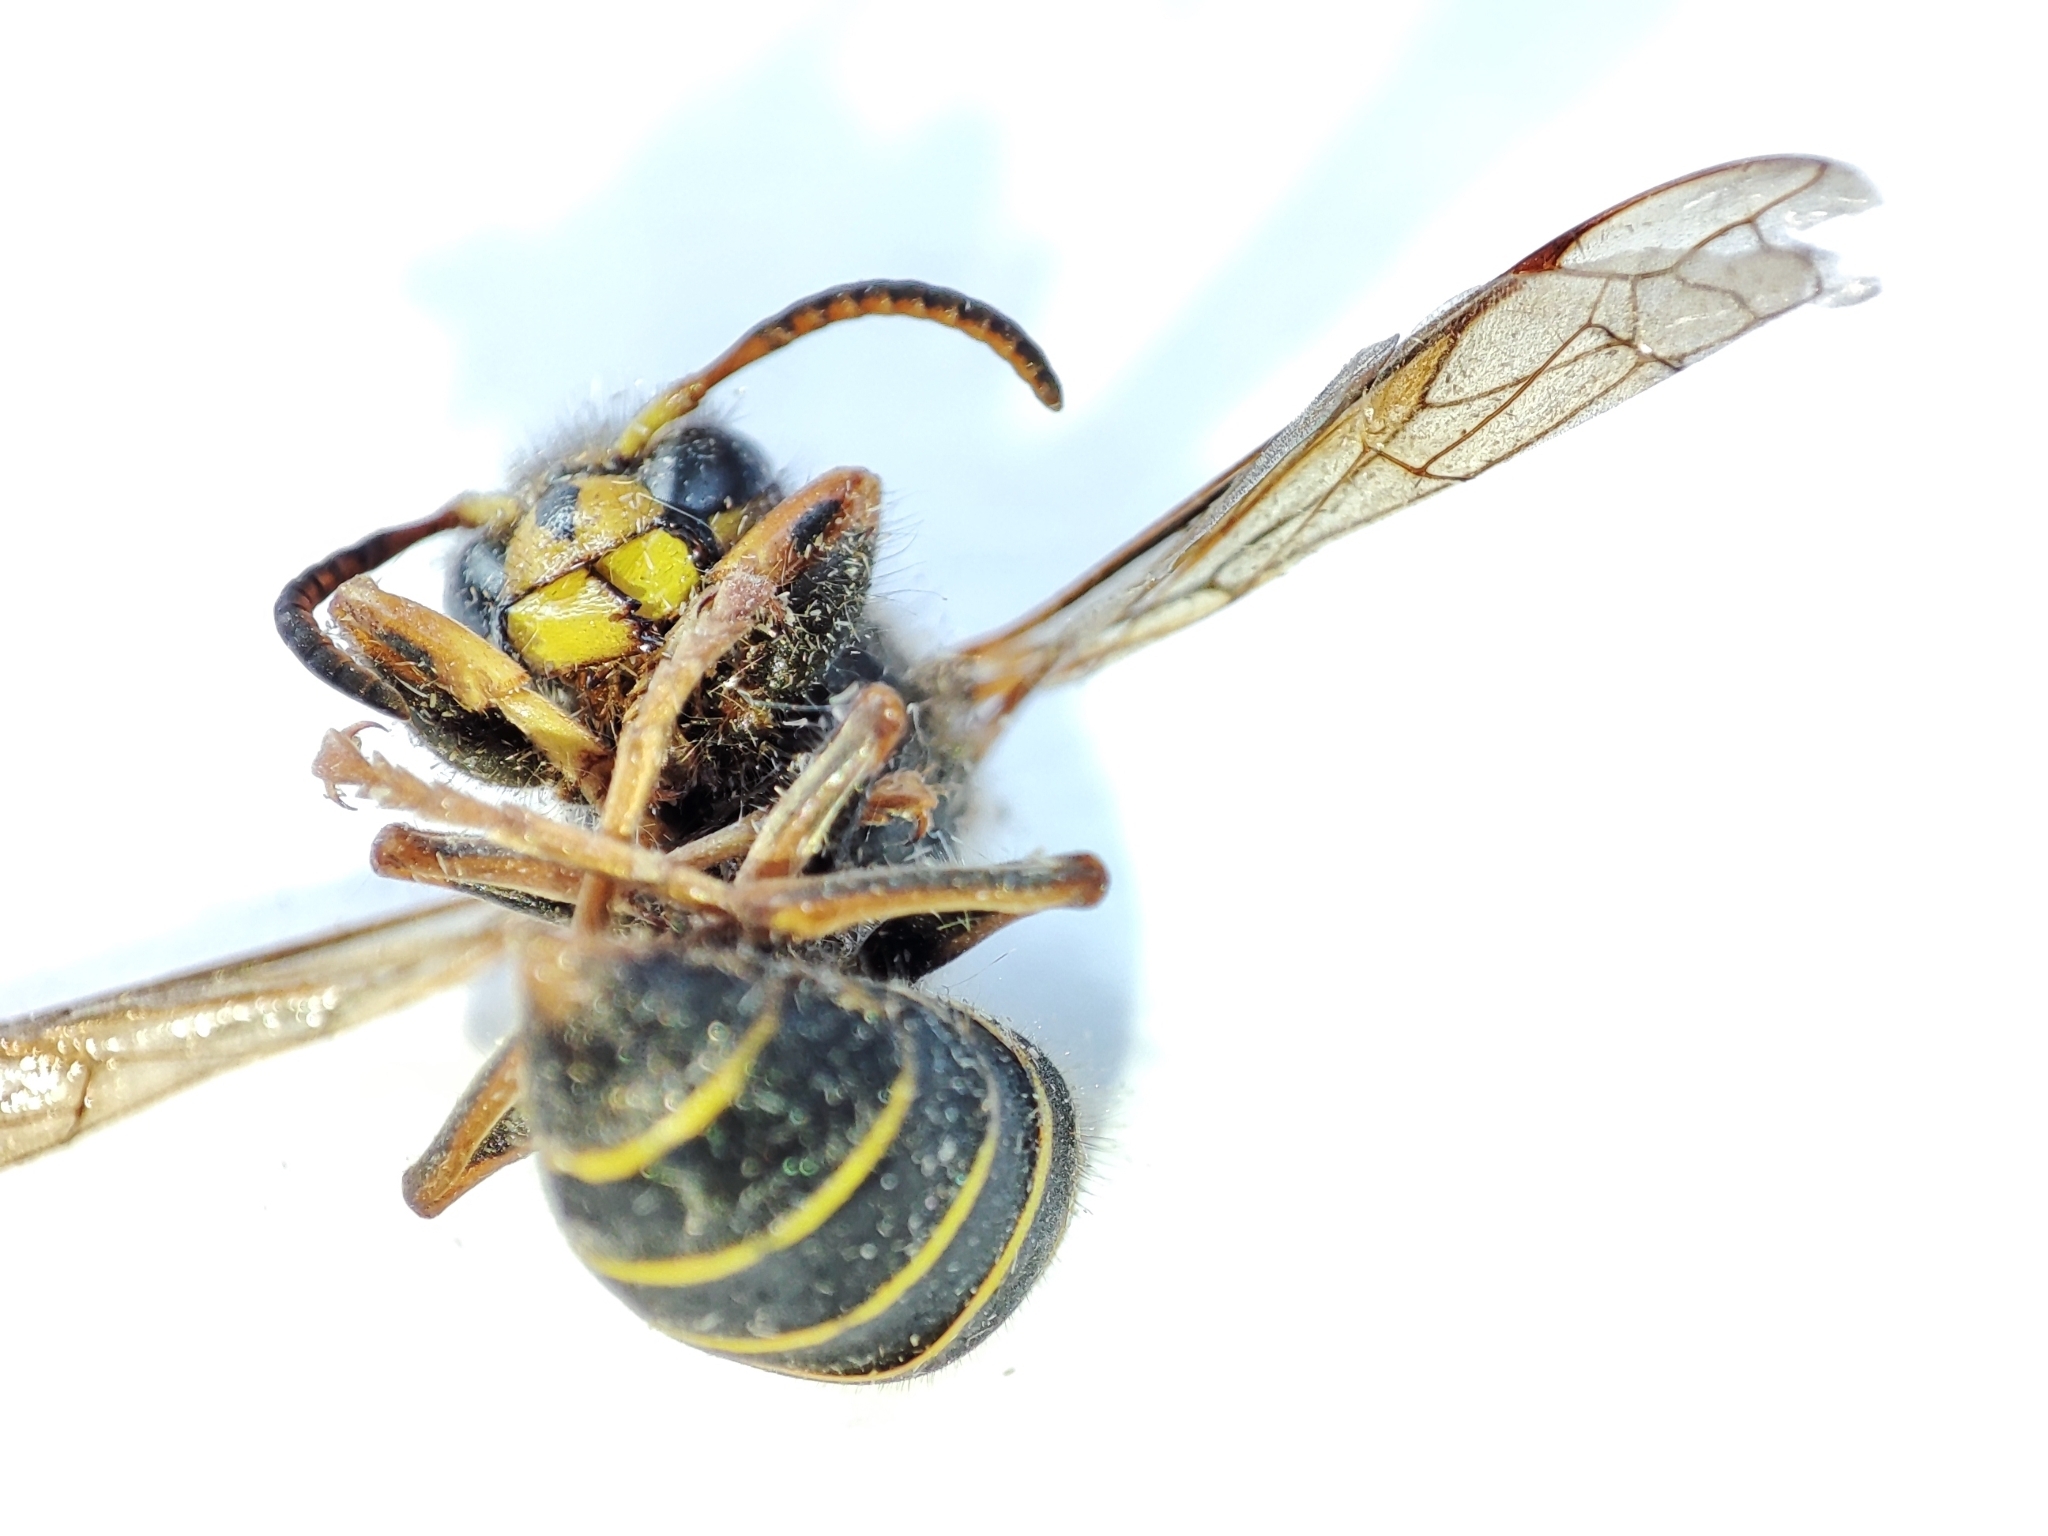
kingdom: Animalia
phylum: Arthropoda
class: Insecta
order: Hymenoptera
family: Vespidae
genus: Dolichovespula
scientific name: Dolichovespula media
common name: Median wasp
